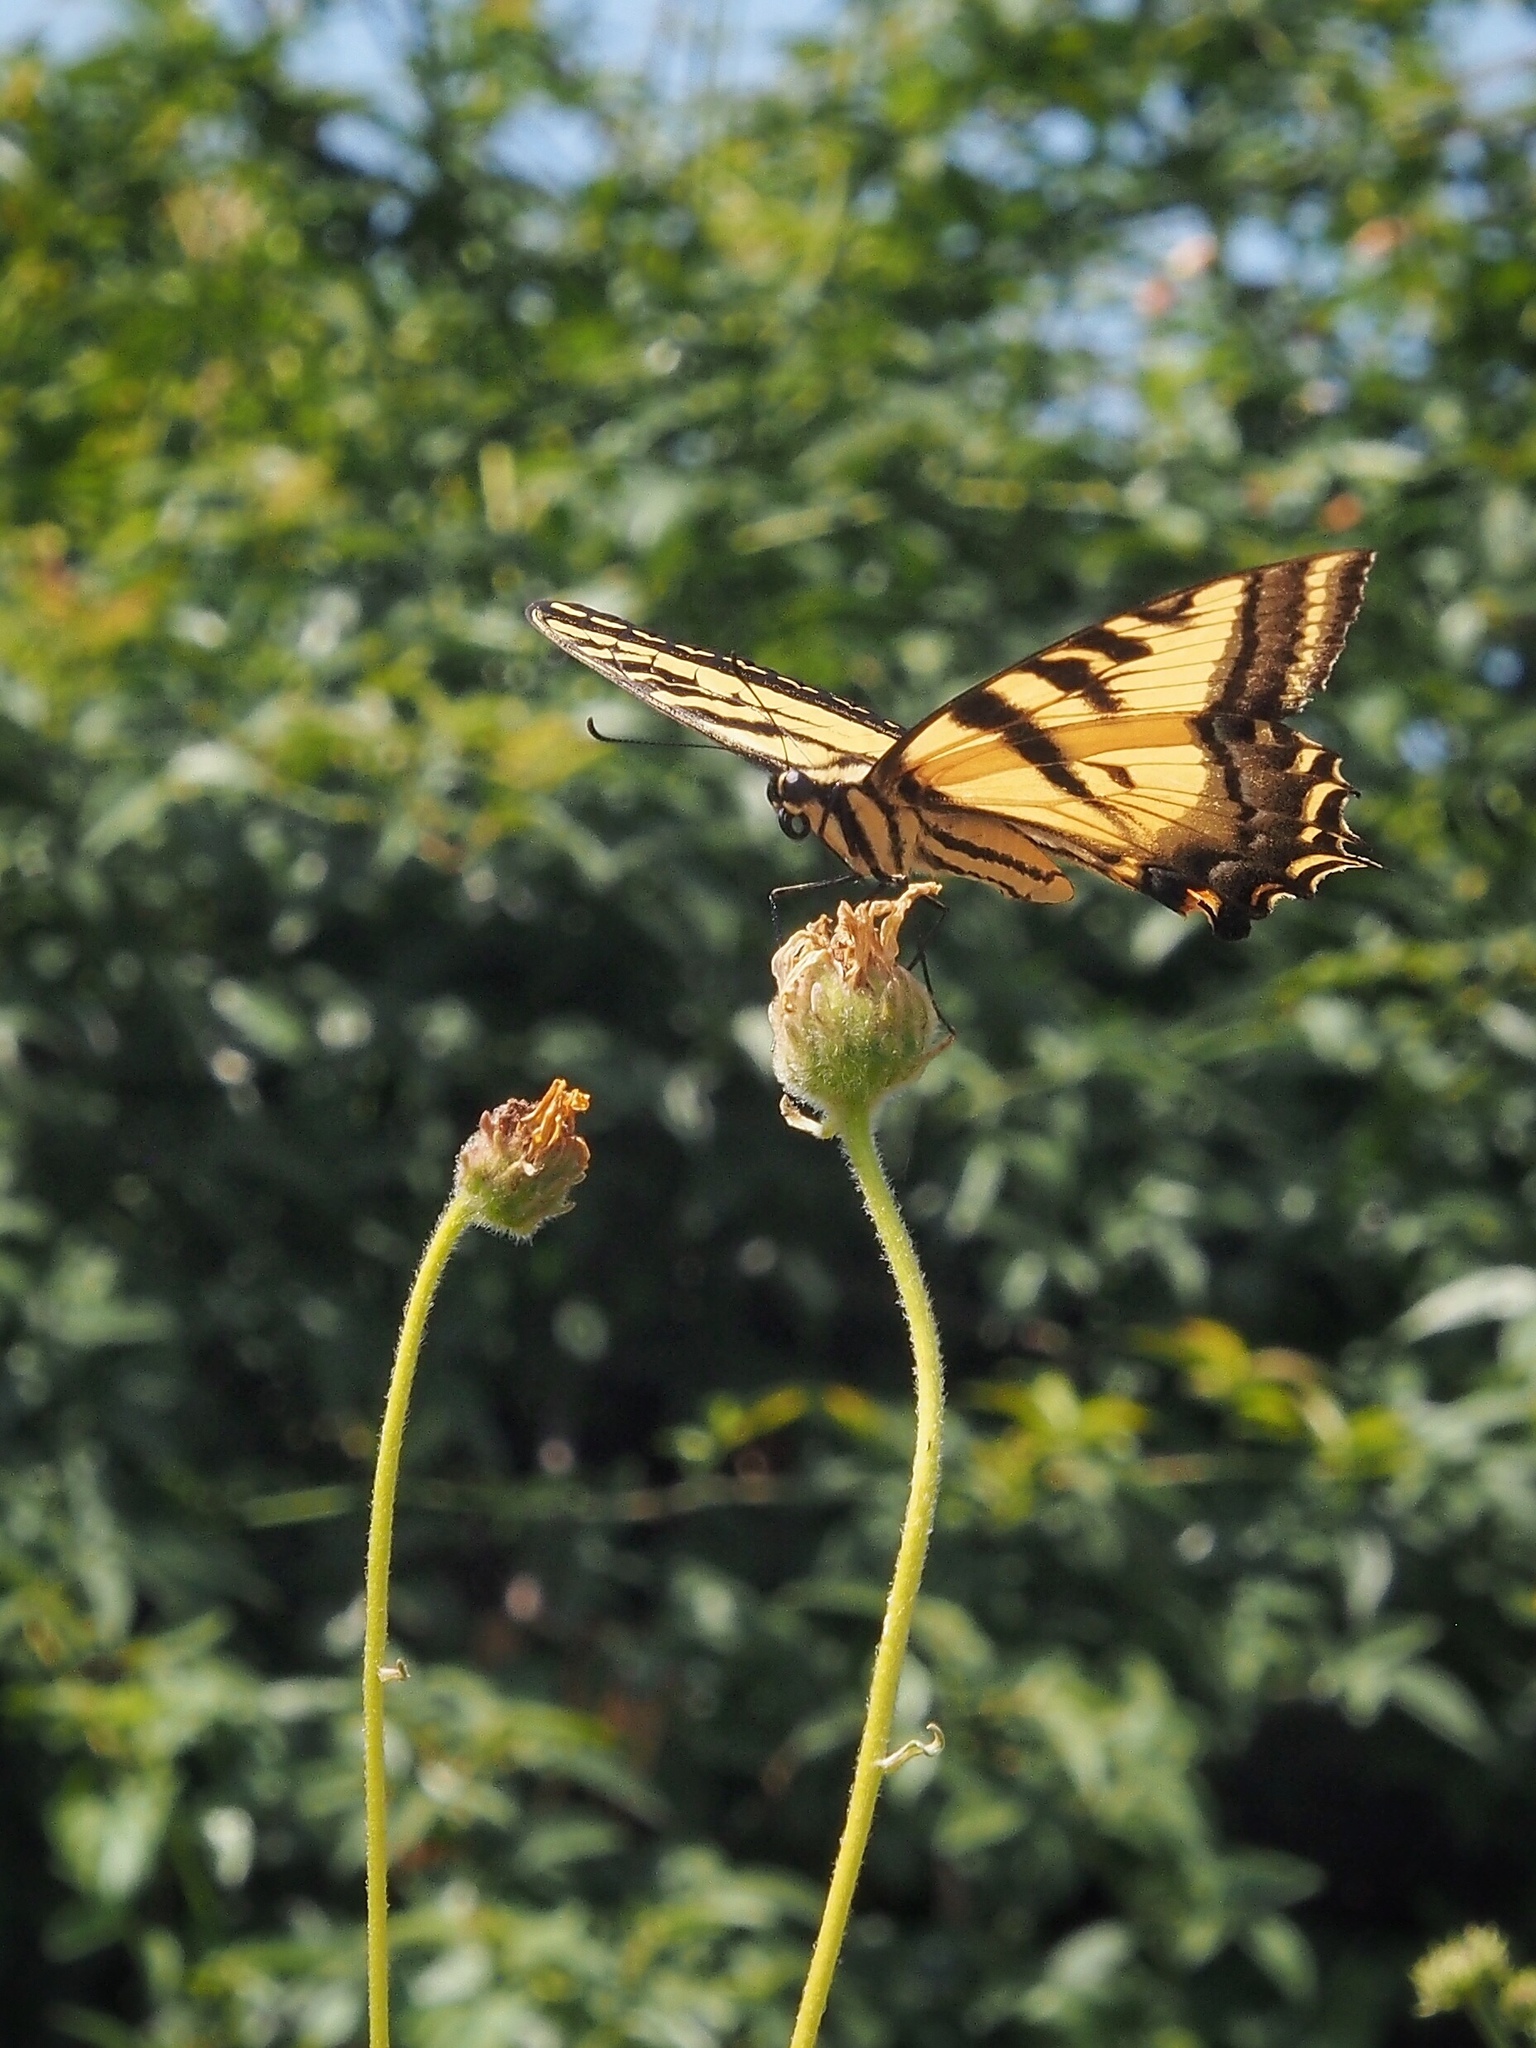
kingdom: Animalia
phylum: Arthropoda
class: Insecta
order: Lepidoptera
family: Papilionidae
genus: Papilio
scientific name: Papilio rutulus
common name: Western tiger swallowtail
